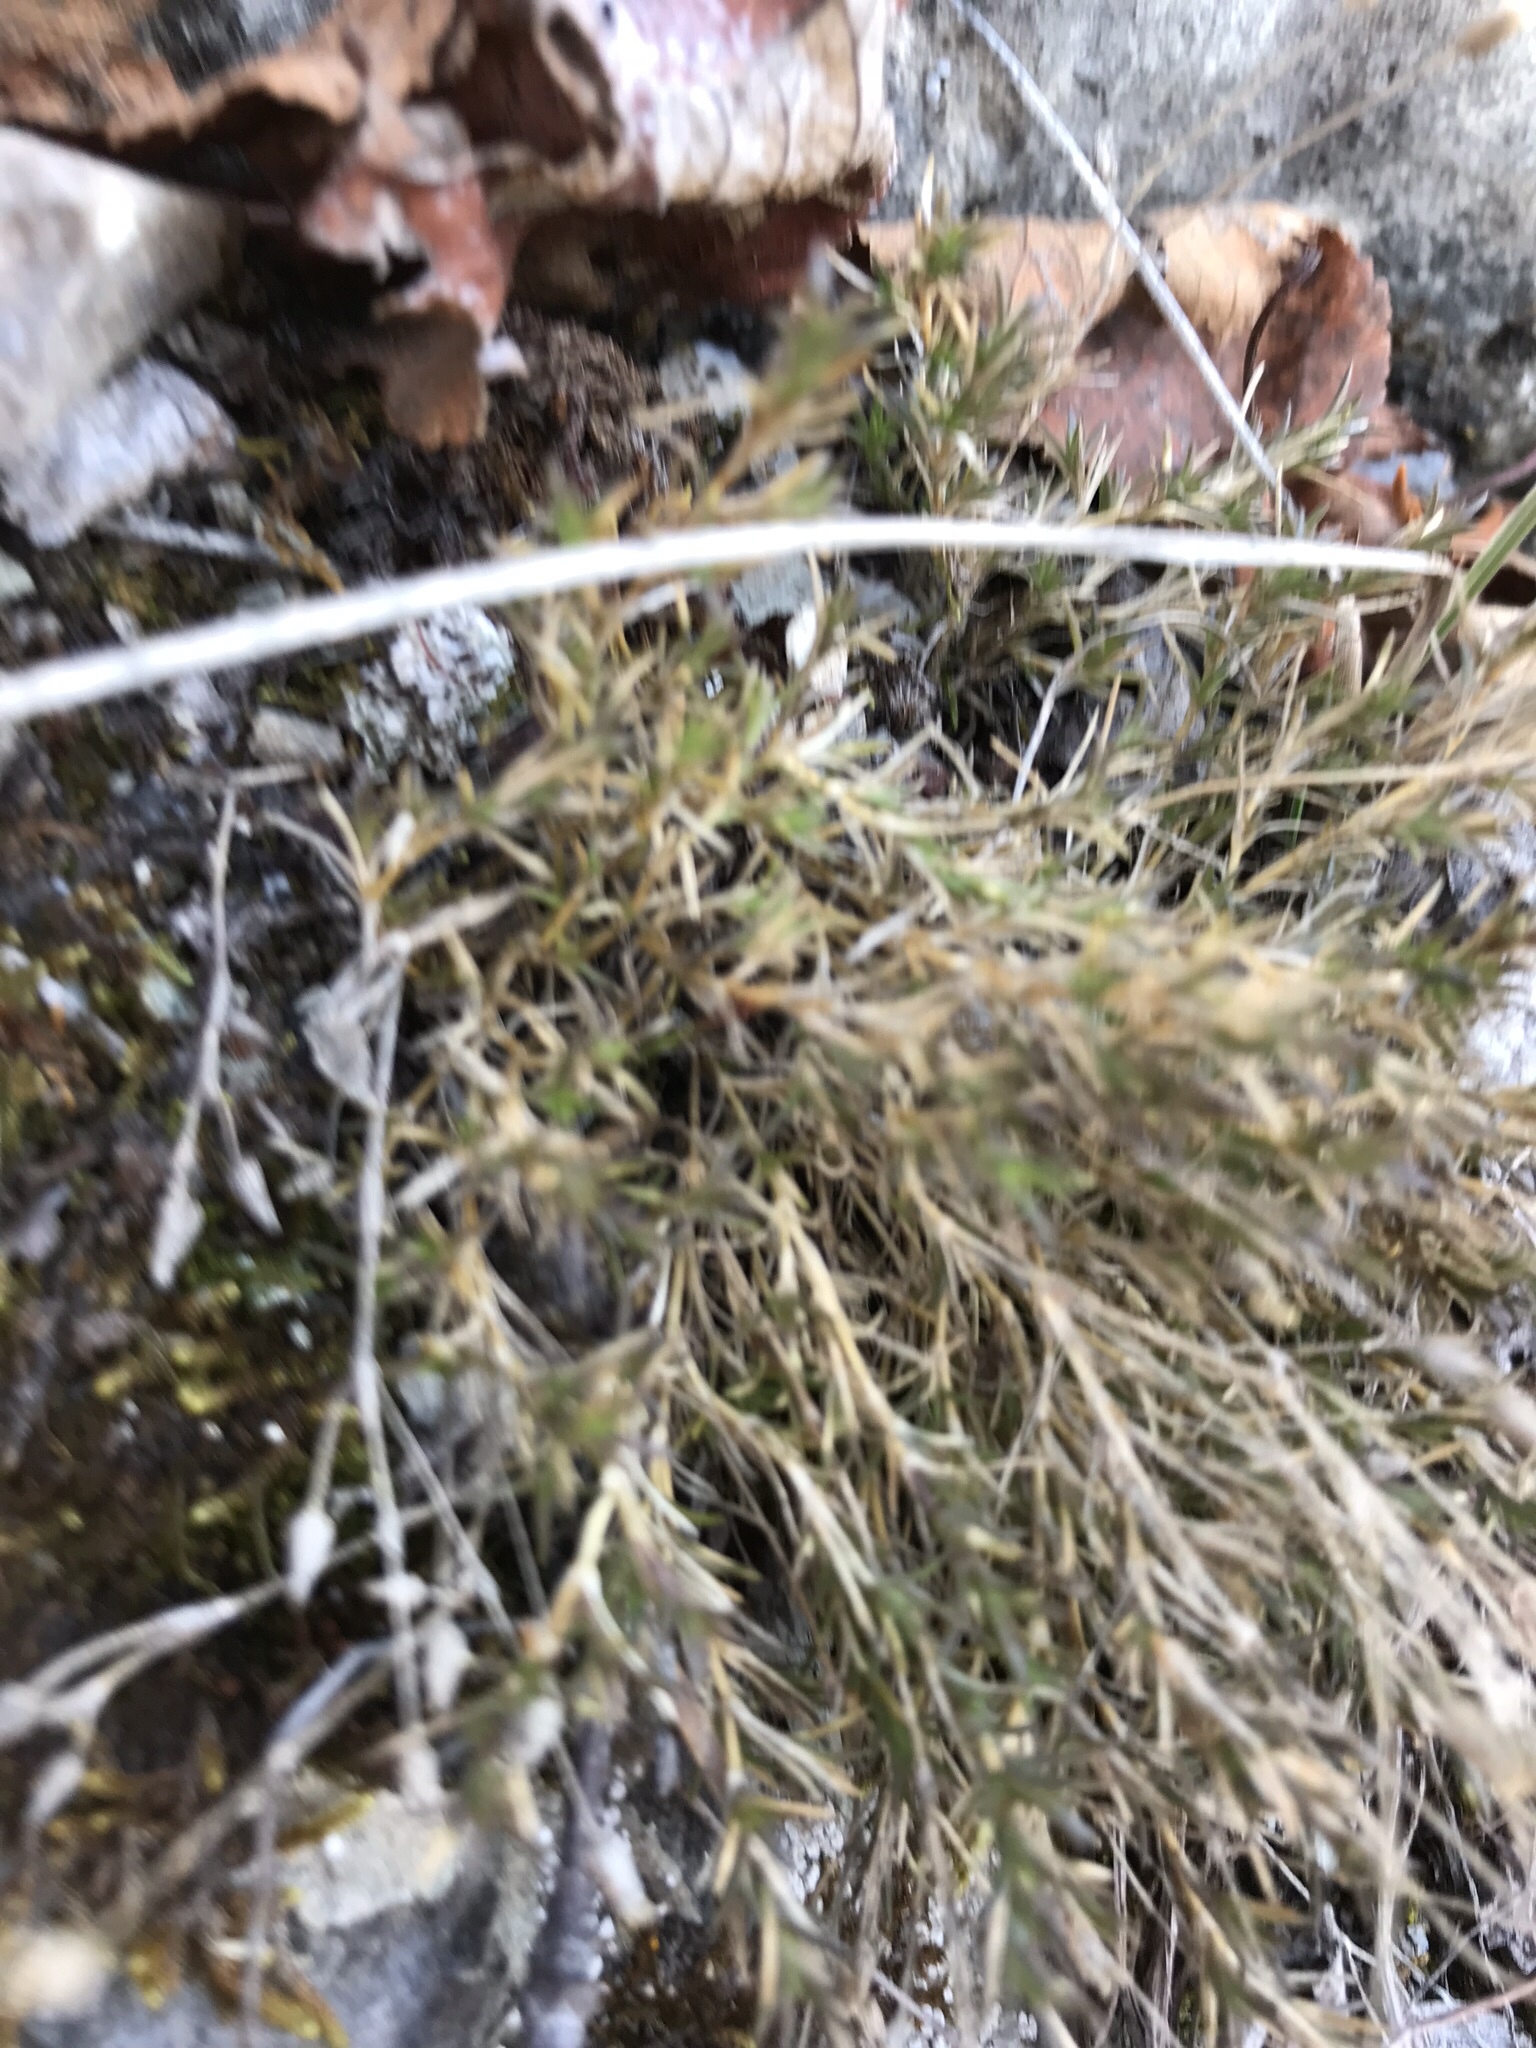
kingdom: Plantae
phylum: Tracheophyta
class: Magnoliopsida
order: Caryophyllales
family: Caryophyllaceae
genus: Cerastium
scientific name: Cerastium arvense
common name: Field mouse-ear
